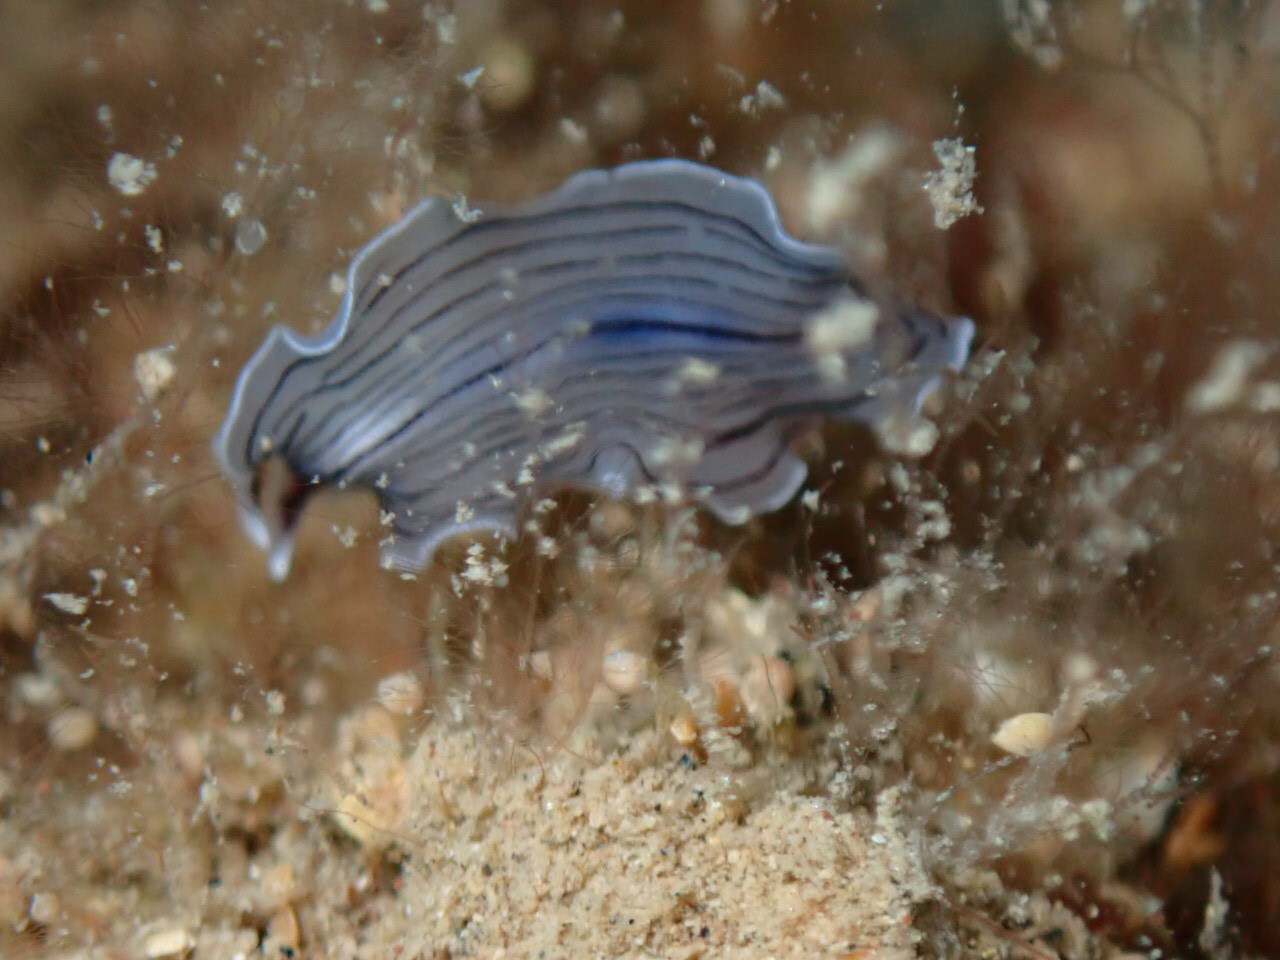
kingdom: Animalia
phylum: Platyhelminthes
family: Euryleptidae
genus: Prostheceraeus
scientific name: Prostheceraeus vittatus
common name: Candy striped flatworm
